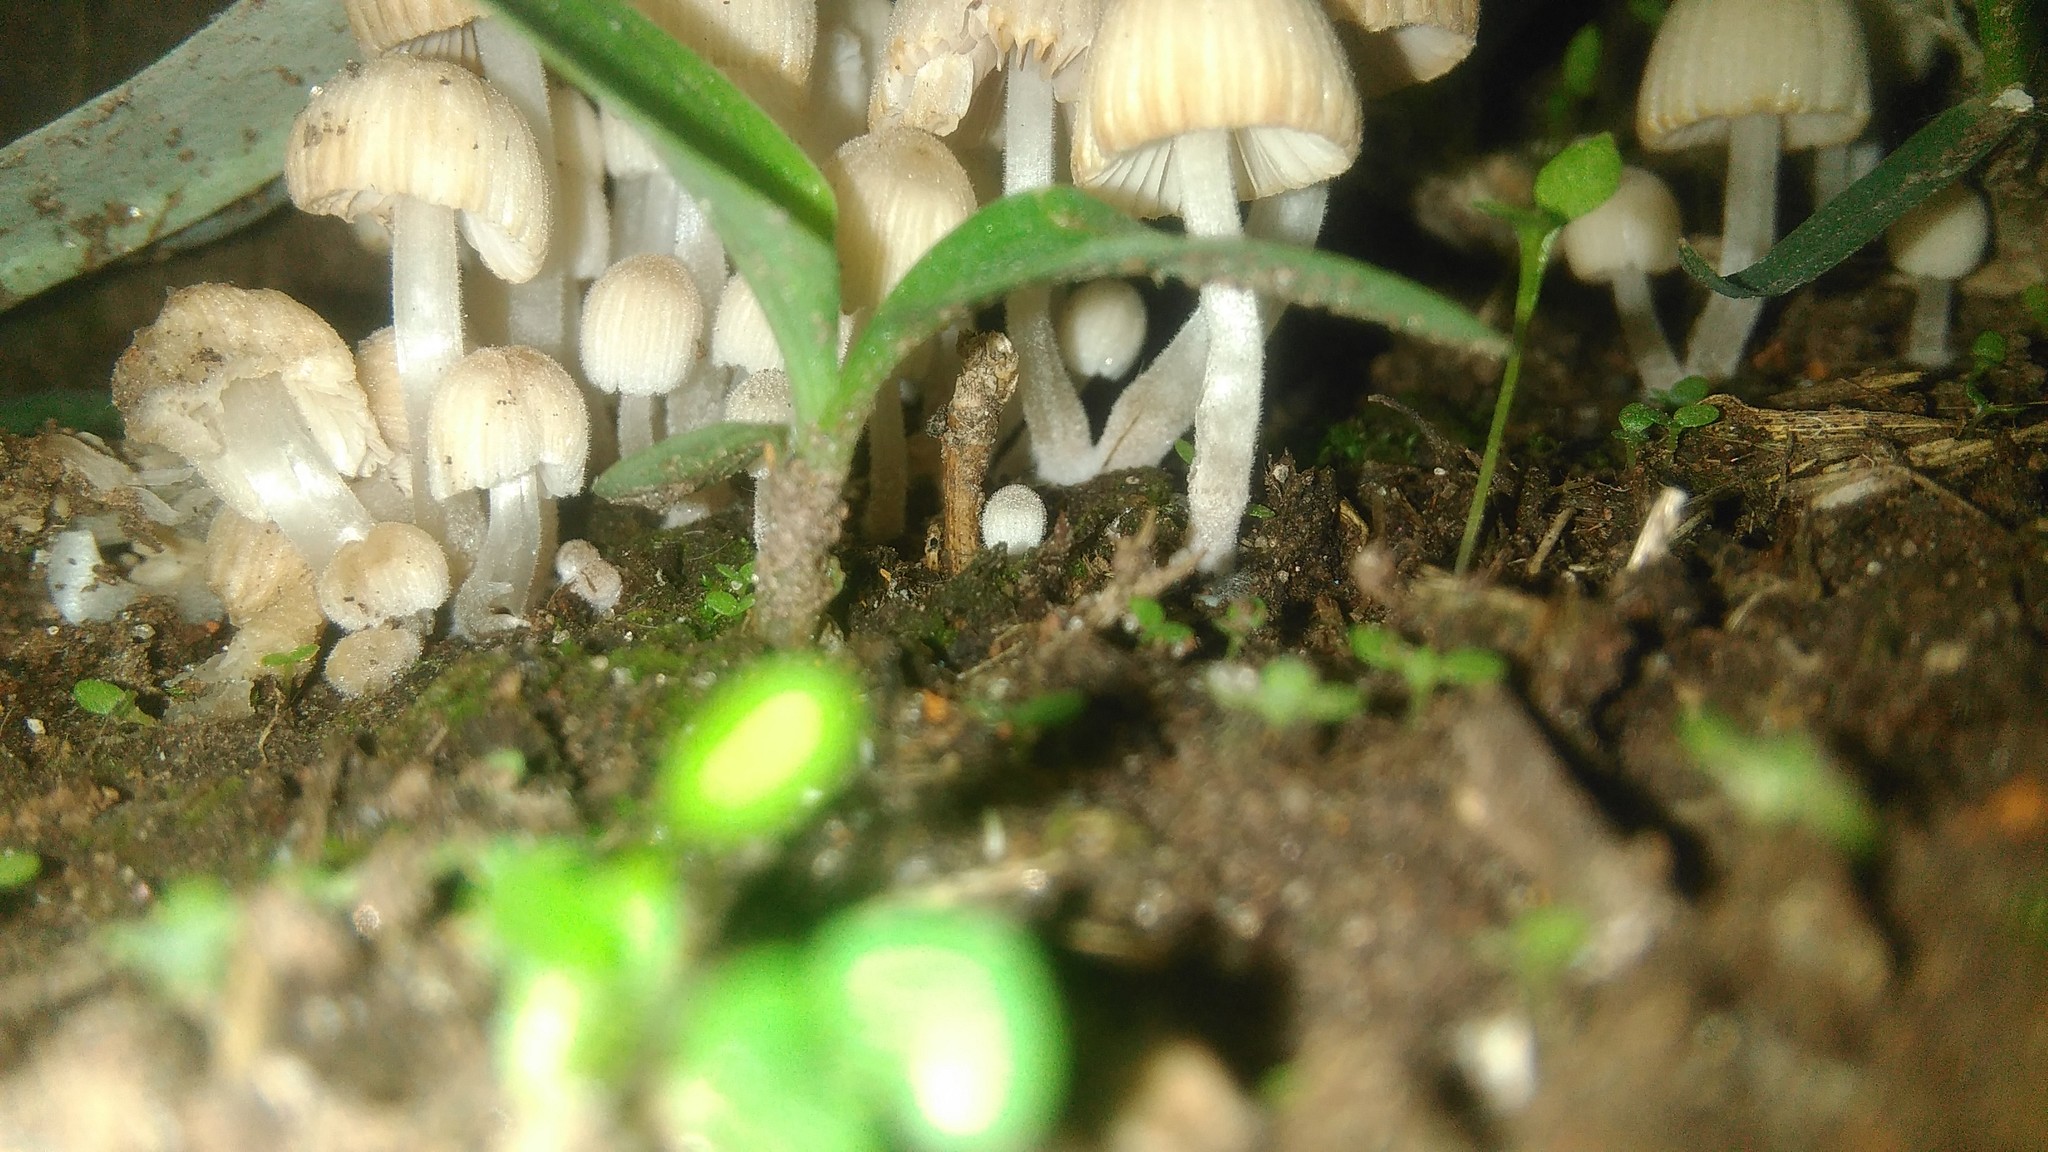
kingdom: Fungi
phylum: Basidiomycota
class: Agaricomycetes
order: Agaricales
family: Psathyrellaceae
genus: Coprinellus
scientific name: Coprinellus disseminatus
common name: Fairies' bonnets
